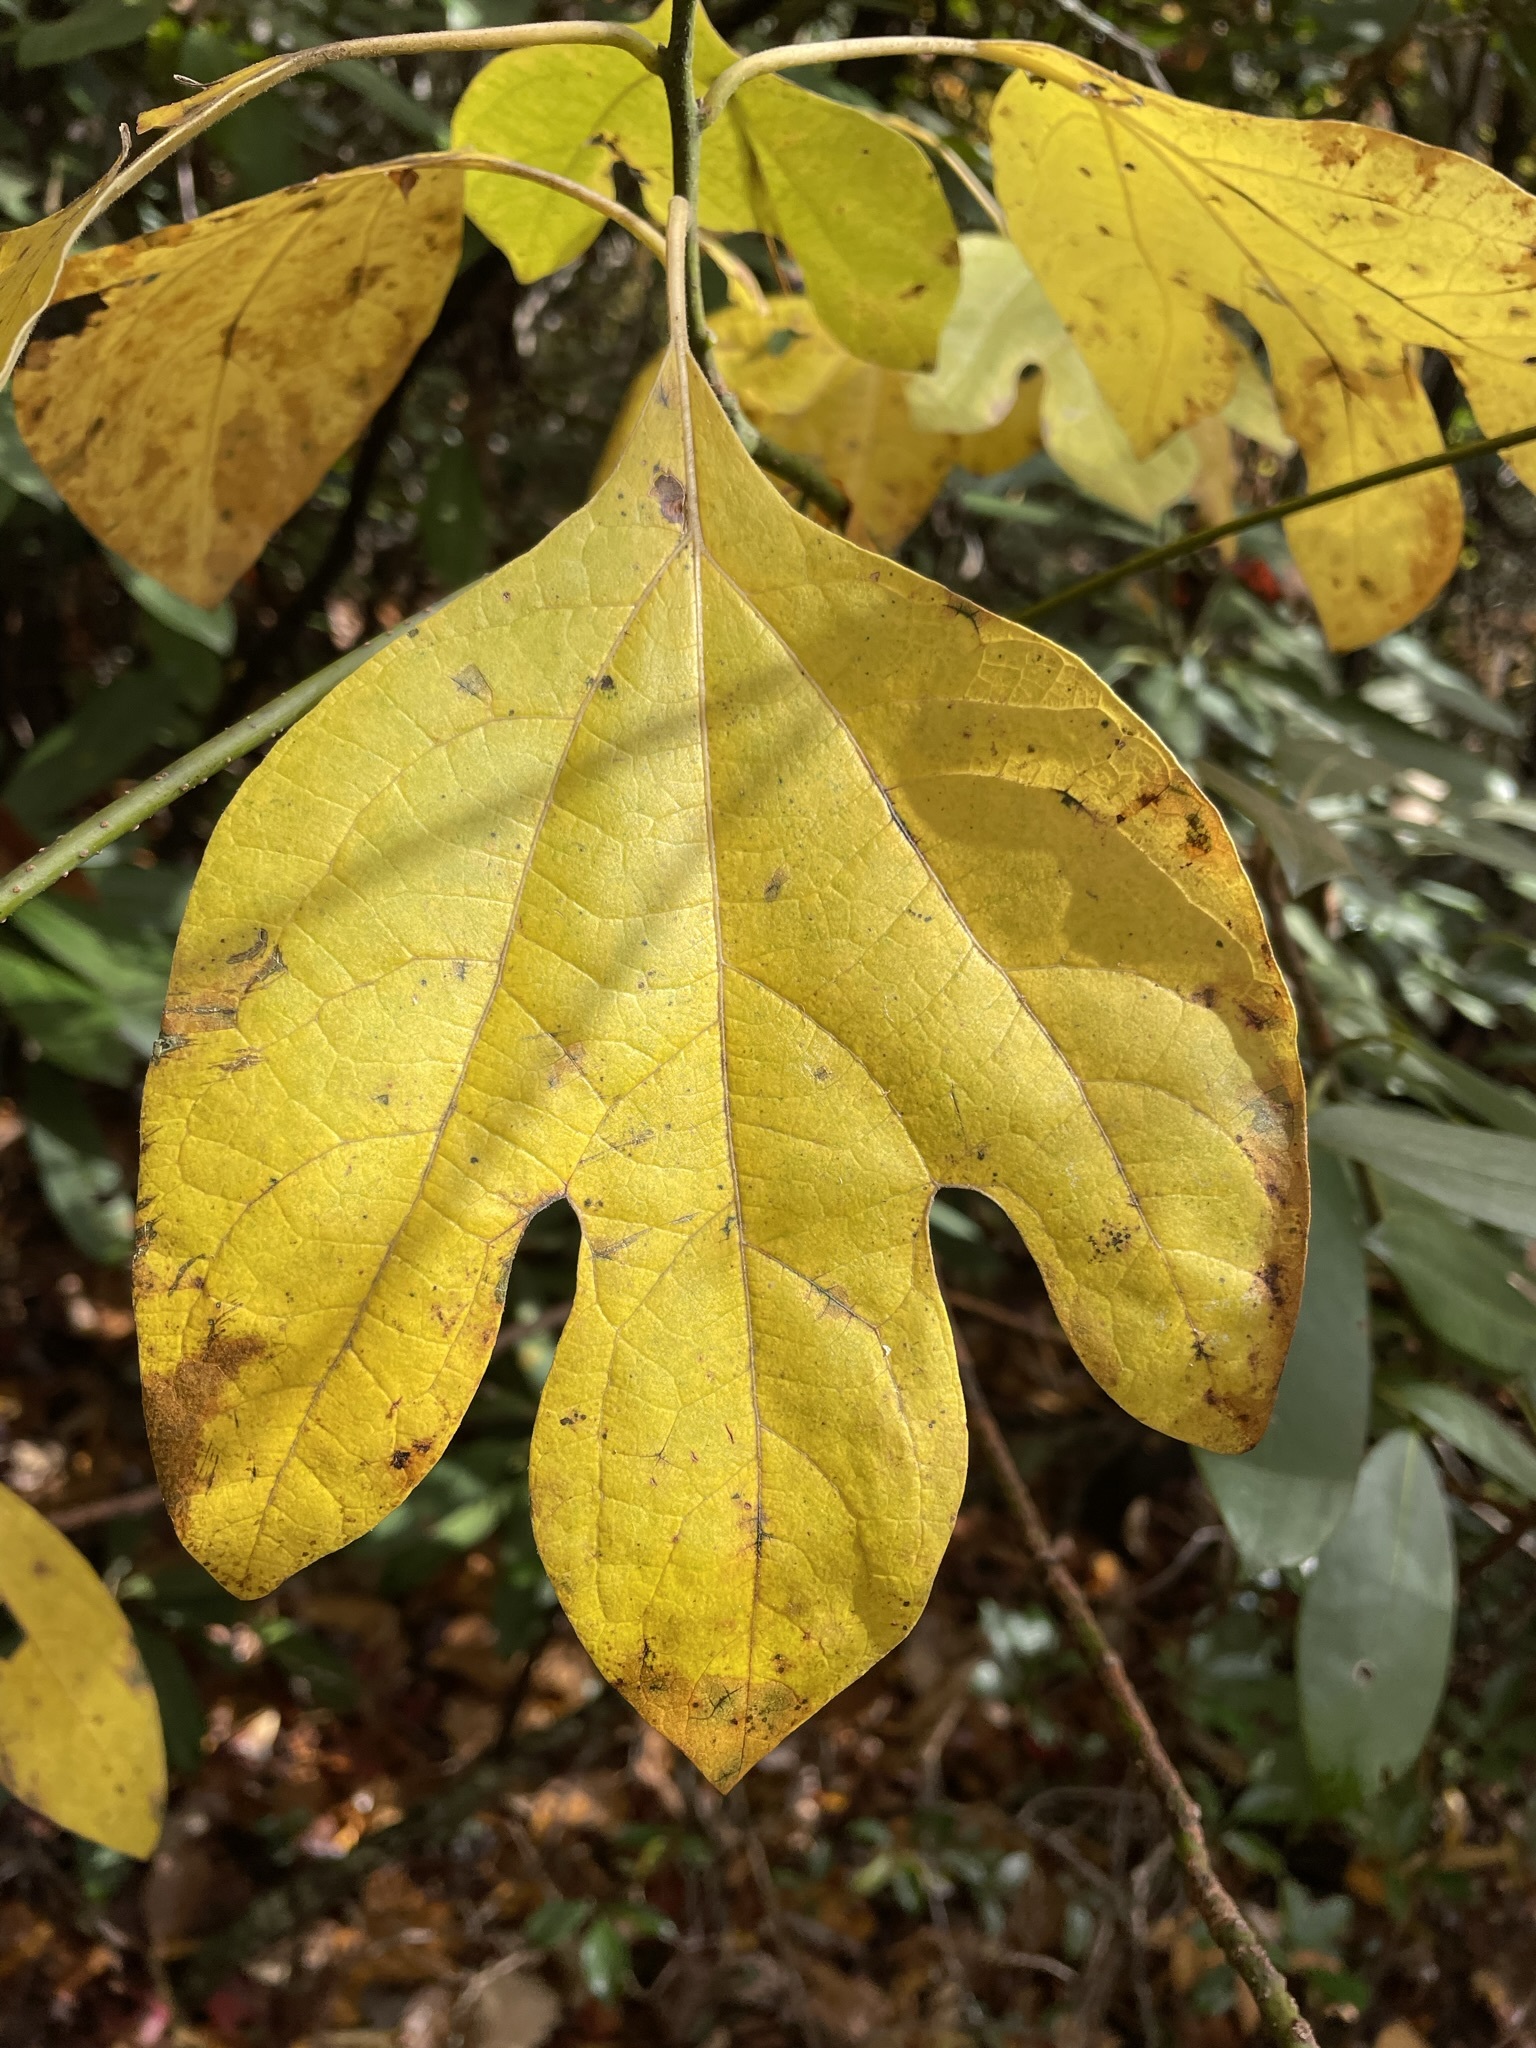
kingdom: Plantae
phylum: Tracheophyta
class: Magnoliopsida
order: Laurales
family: Lauraceae
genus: Sassafras
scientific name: Sassafras albidum
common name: Sassafras
